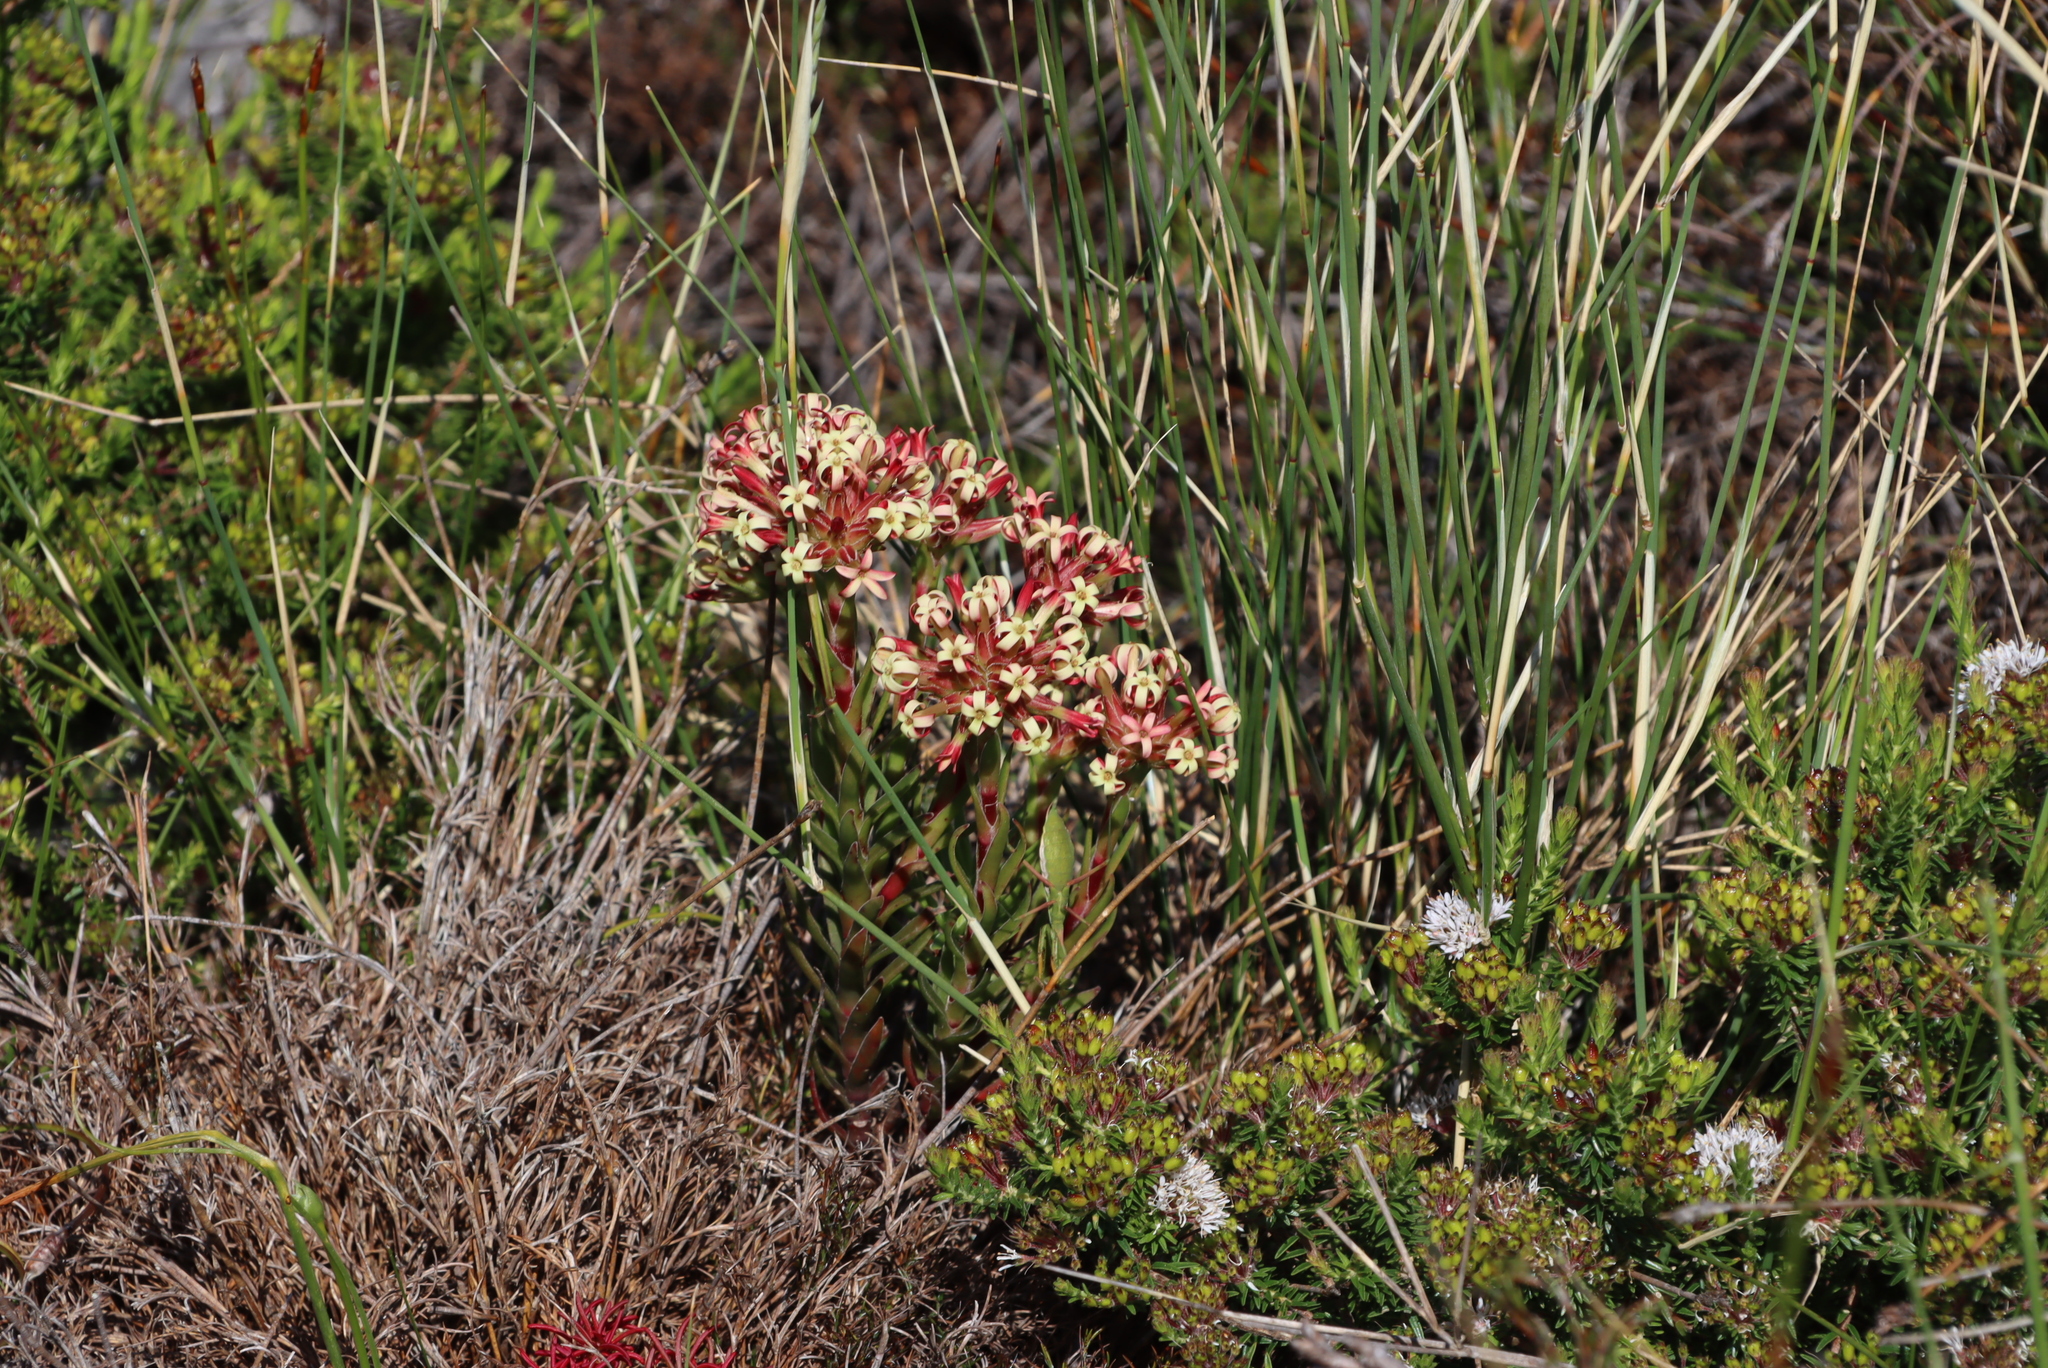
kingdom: Plantae
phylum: Tracheophyta
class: Magnoliopsida
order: Saxifragales
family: Crassulaceae
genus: Crassula
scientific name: Crassula fascicularis
